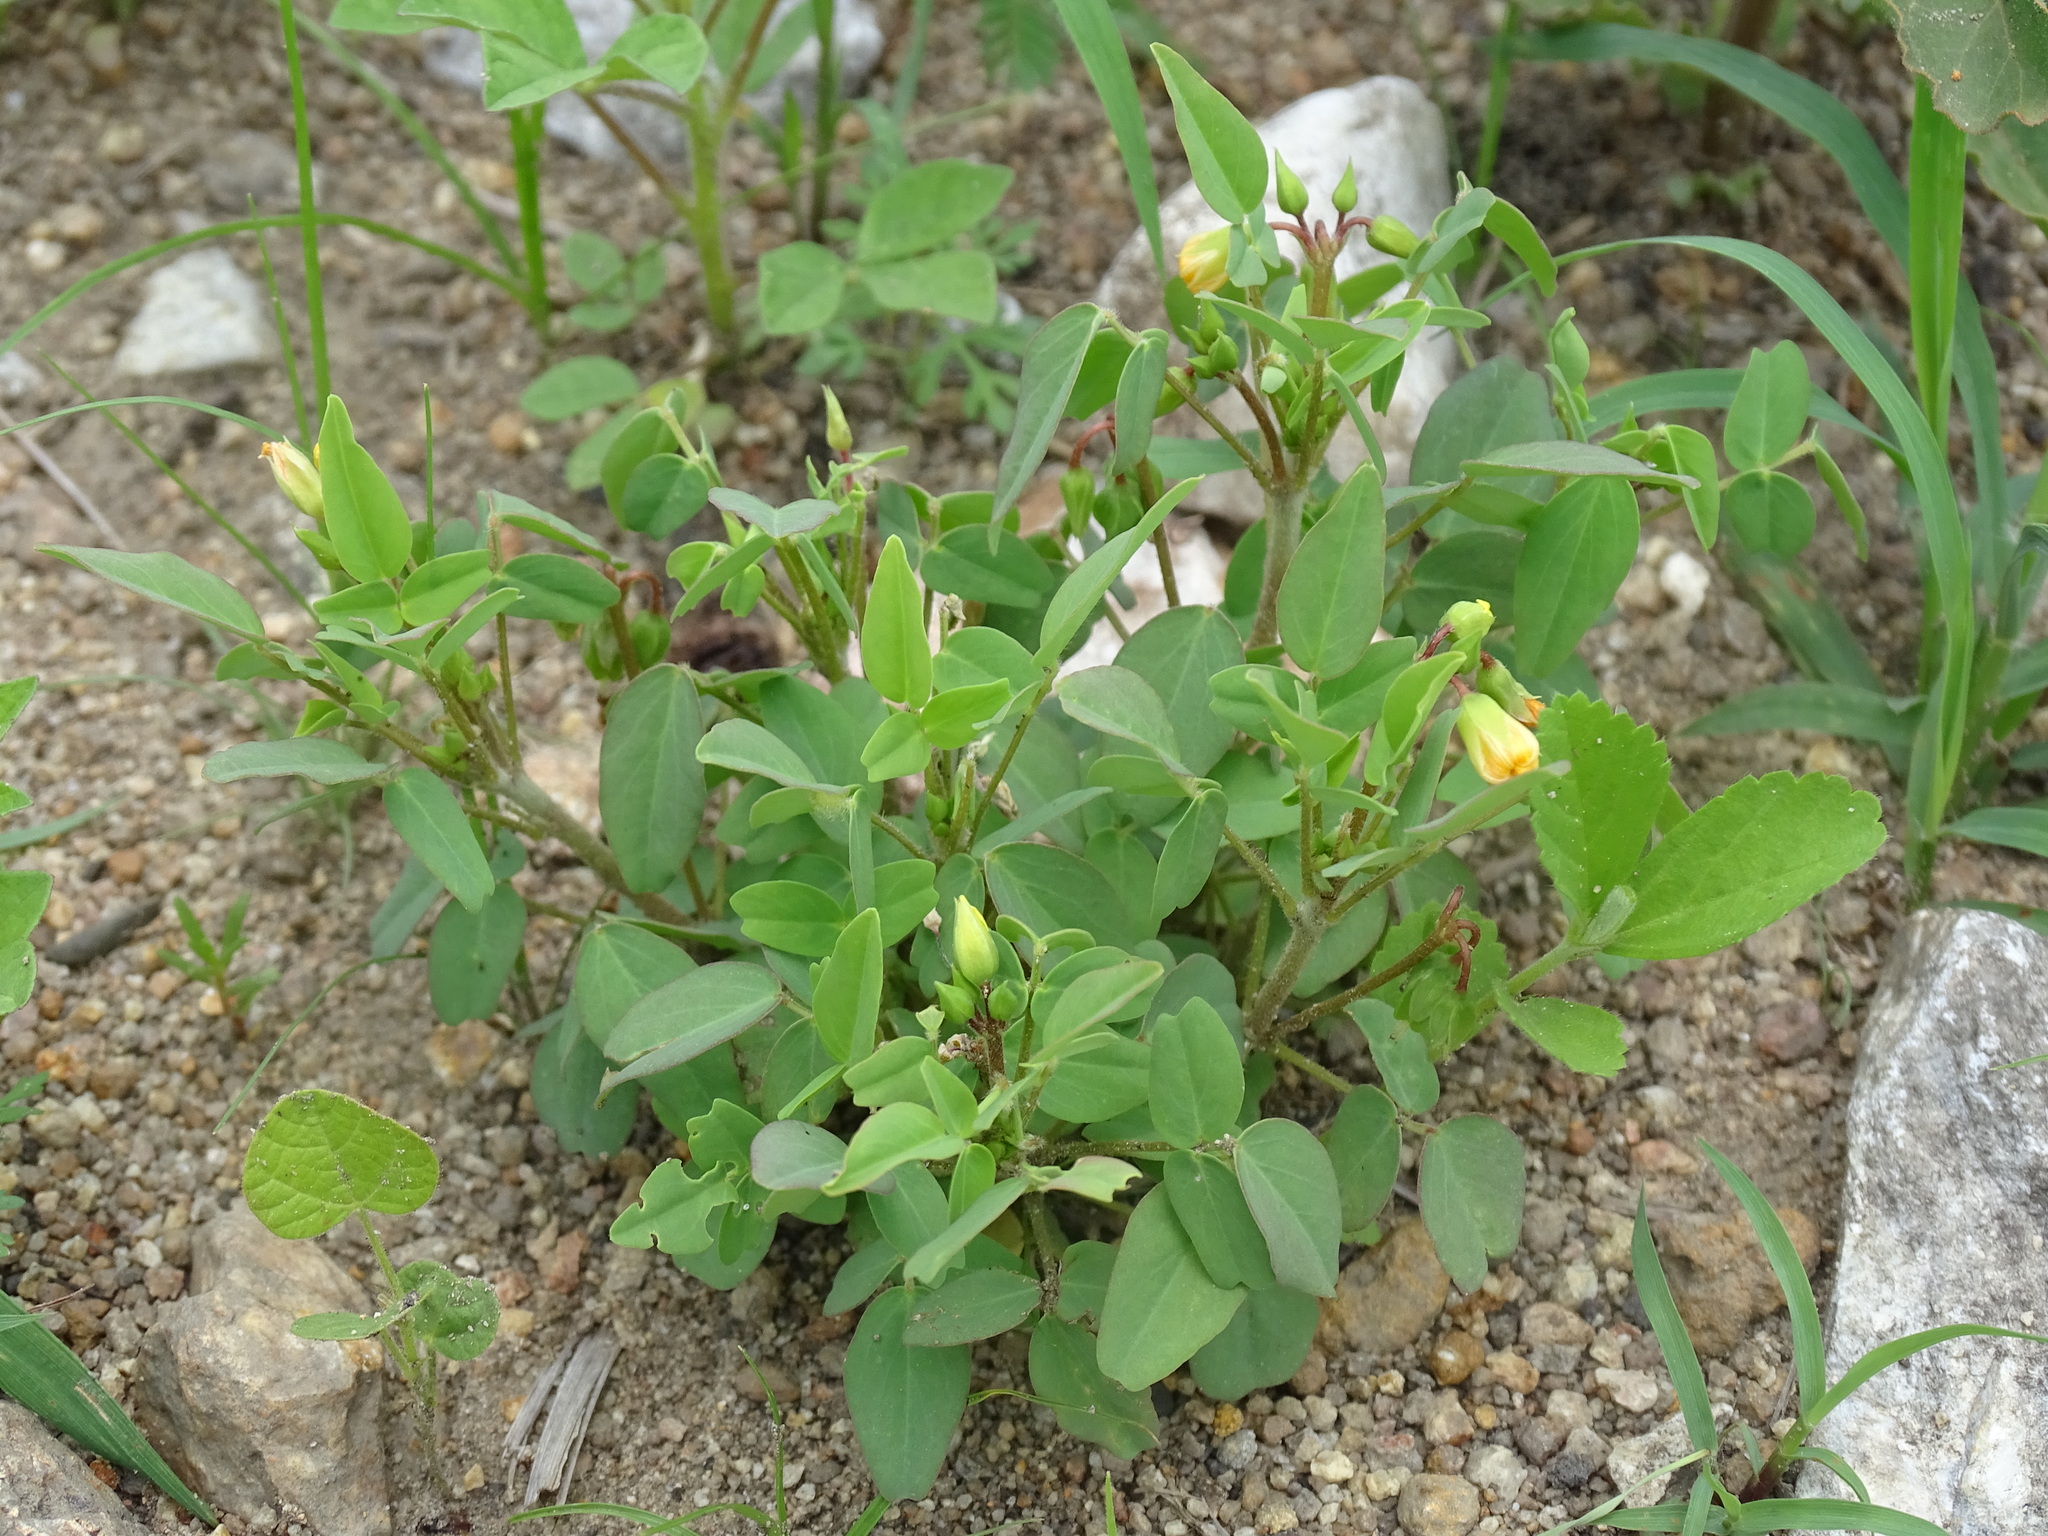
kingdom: Plantae
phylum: Tracheophyta
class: Magnoliopsida
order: Oxalidales
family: Oxalidaceae
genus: Oxalis
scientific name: Oxalis frutescens
